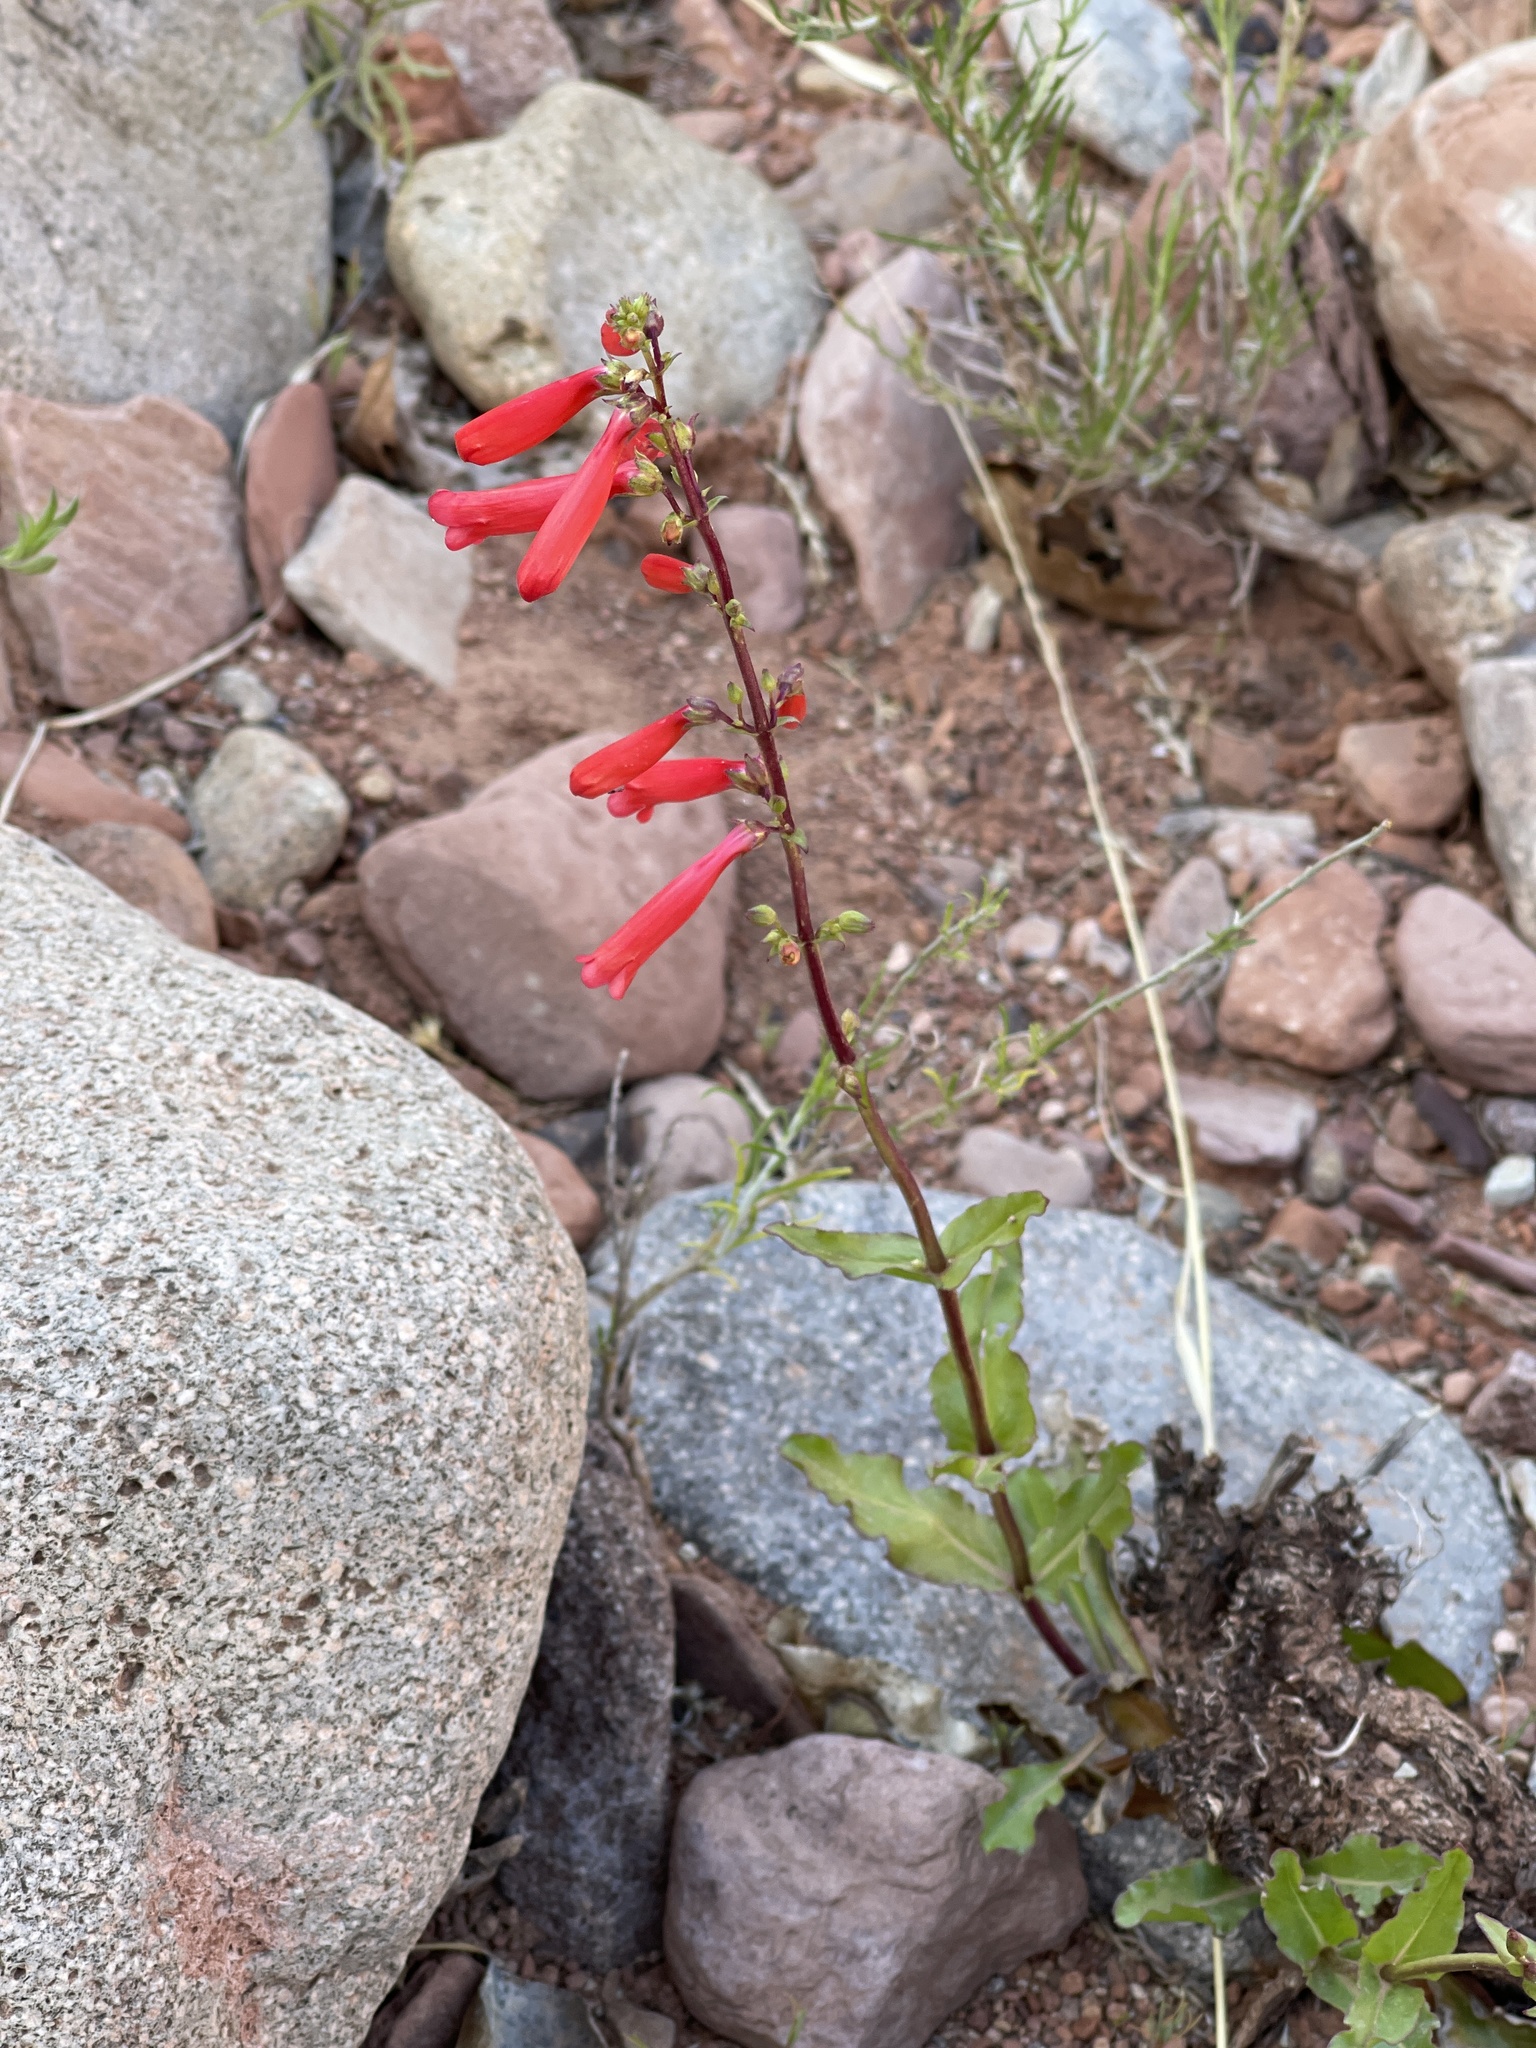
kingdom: Plantae
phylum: Tracheophyta
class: Magnoliopsida
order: Lamiales
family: Plantaginaceae
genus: Penstemon
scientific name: Penstemon eatonii
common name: Eaton's penstemon
